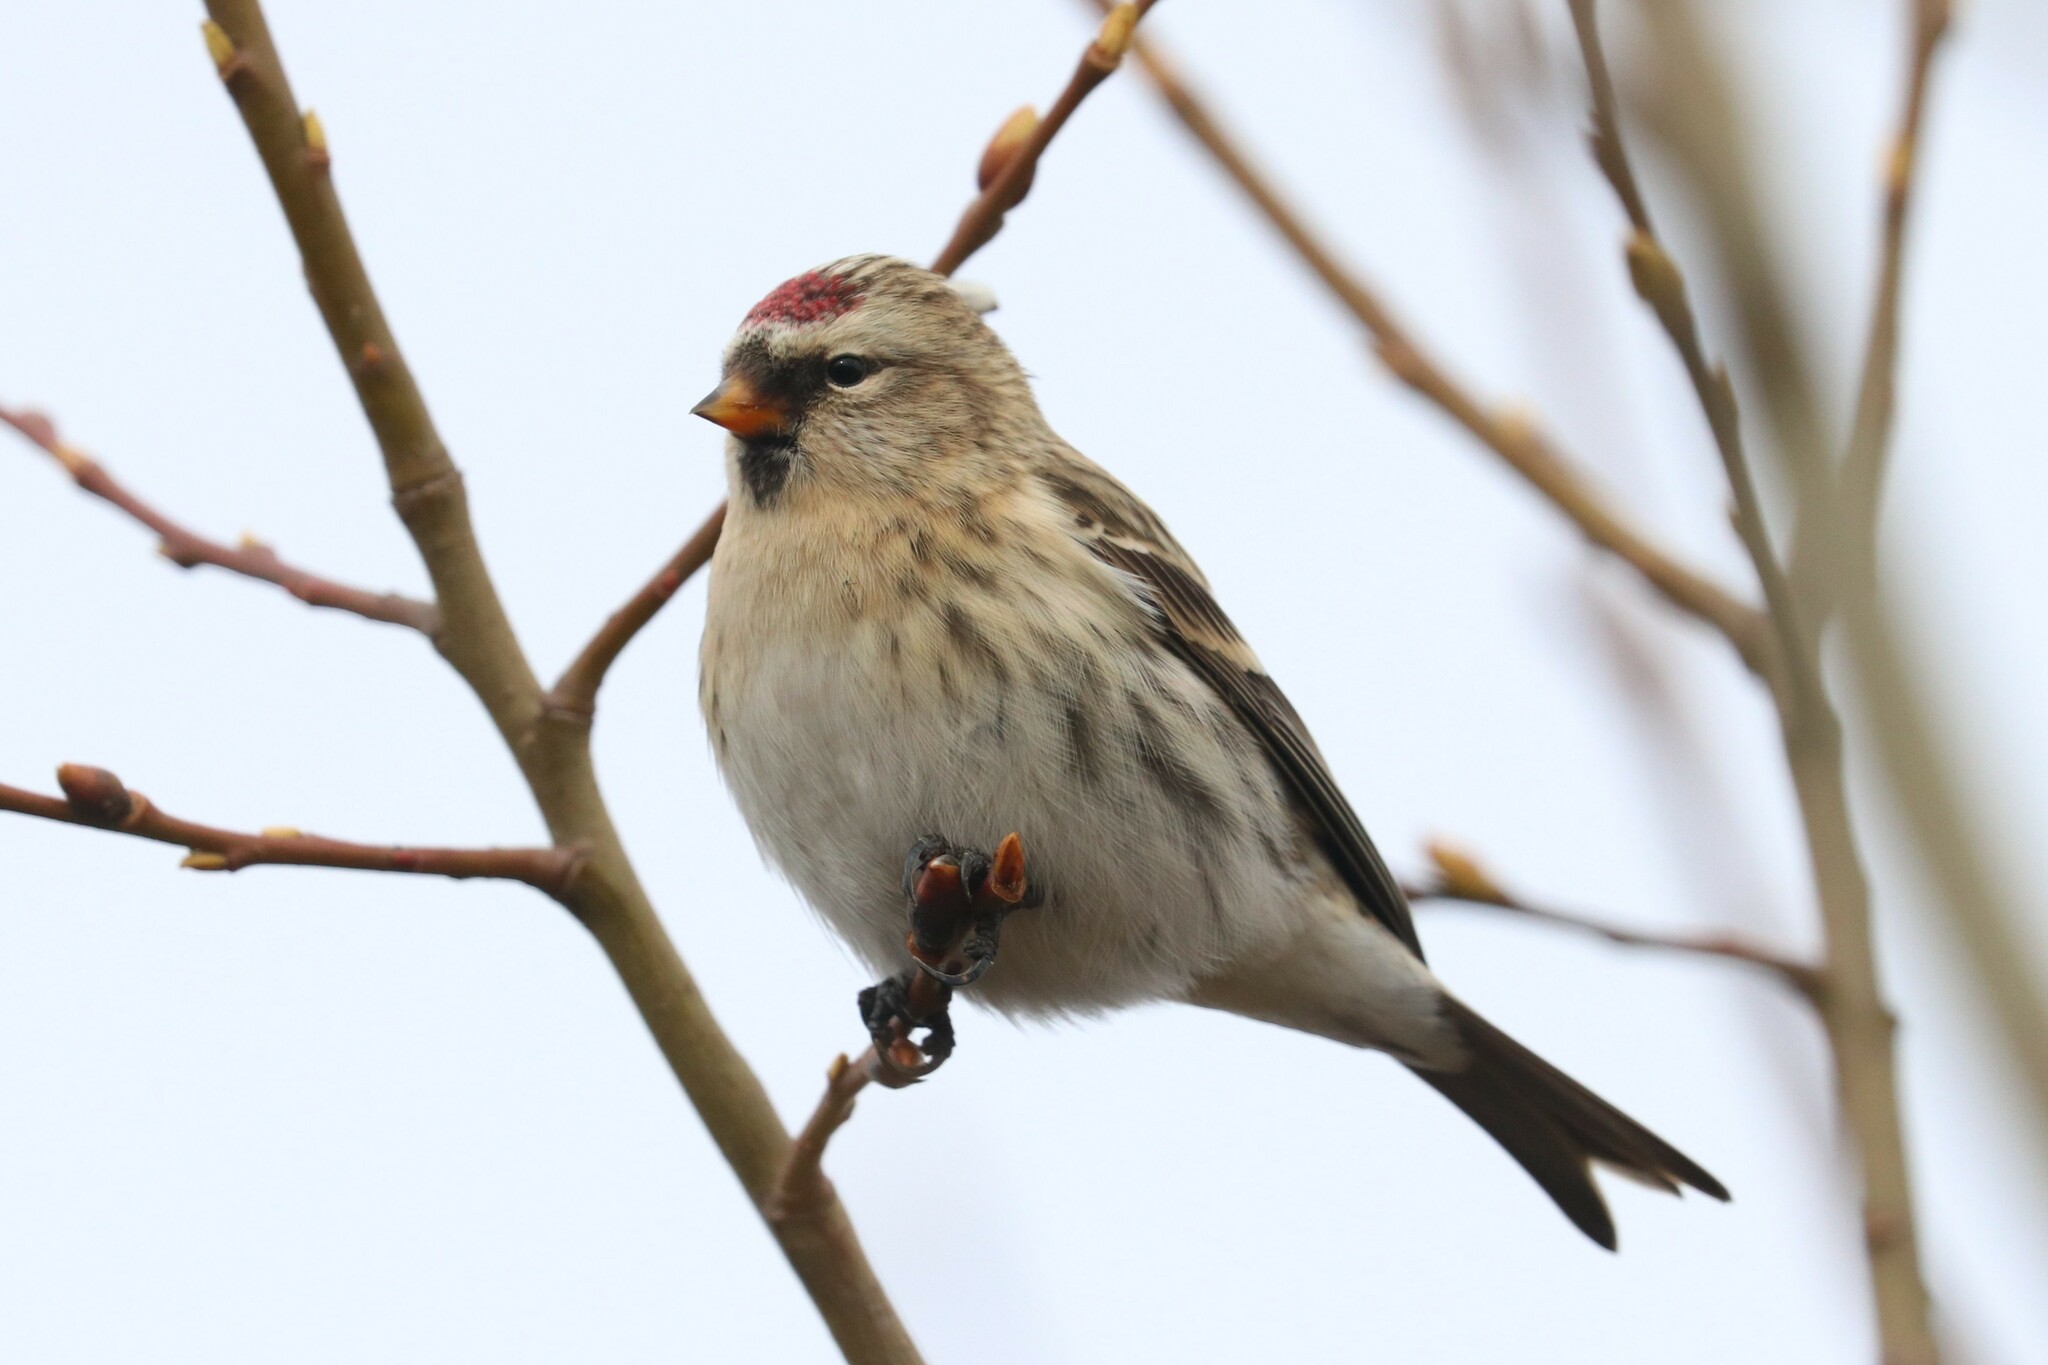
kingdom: Animalia
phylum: Chordata
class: Aves
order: Passeriformes
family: Fringillidae
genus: Acanthis
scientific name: Acanthis flammea
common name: Common redpoll
